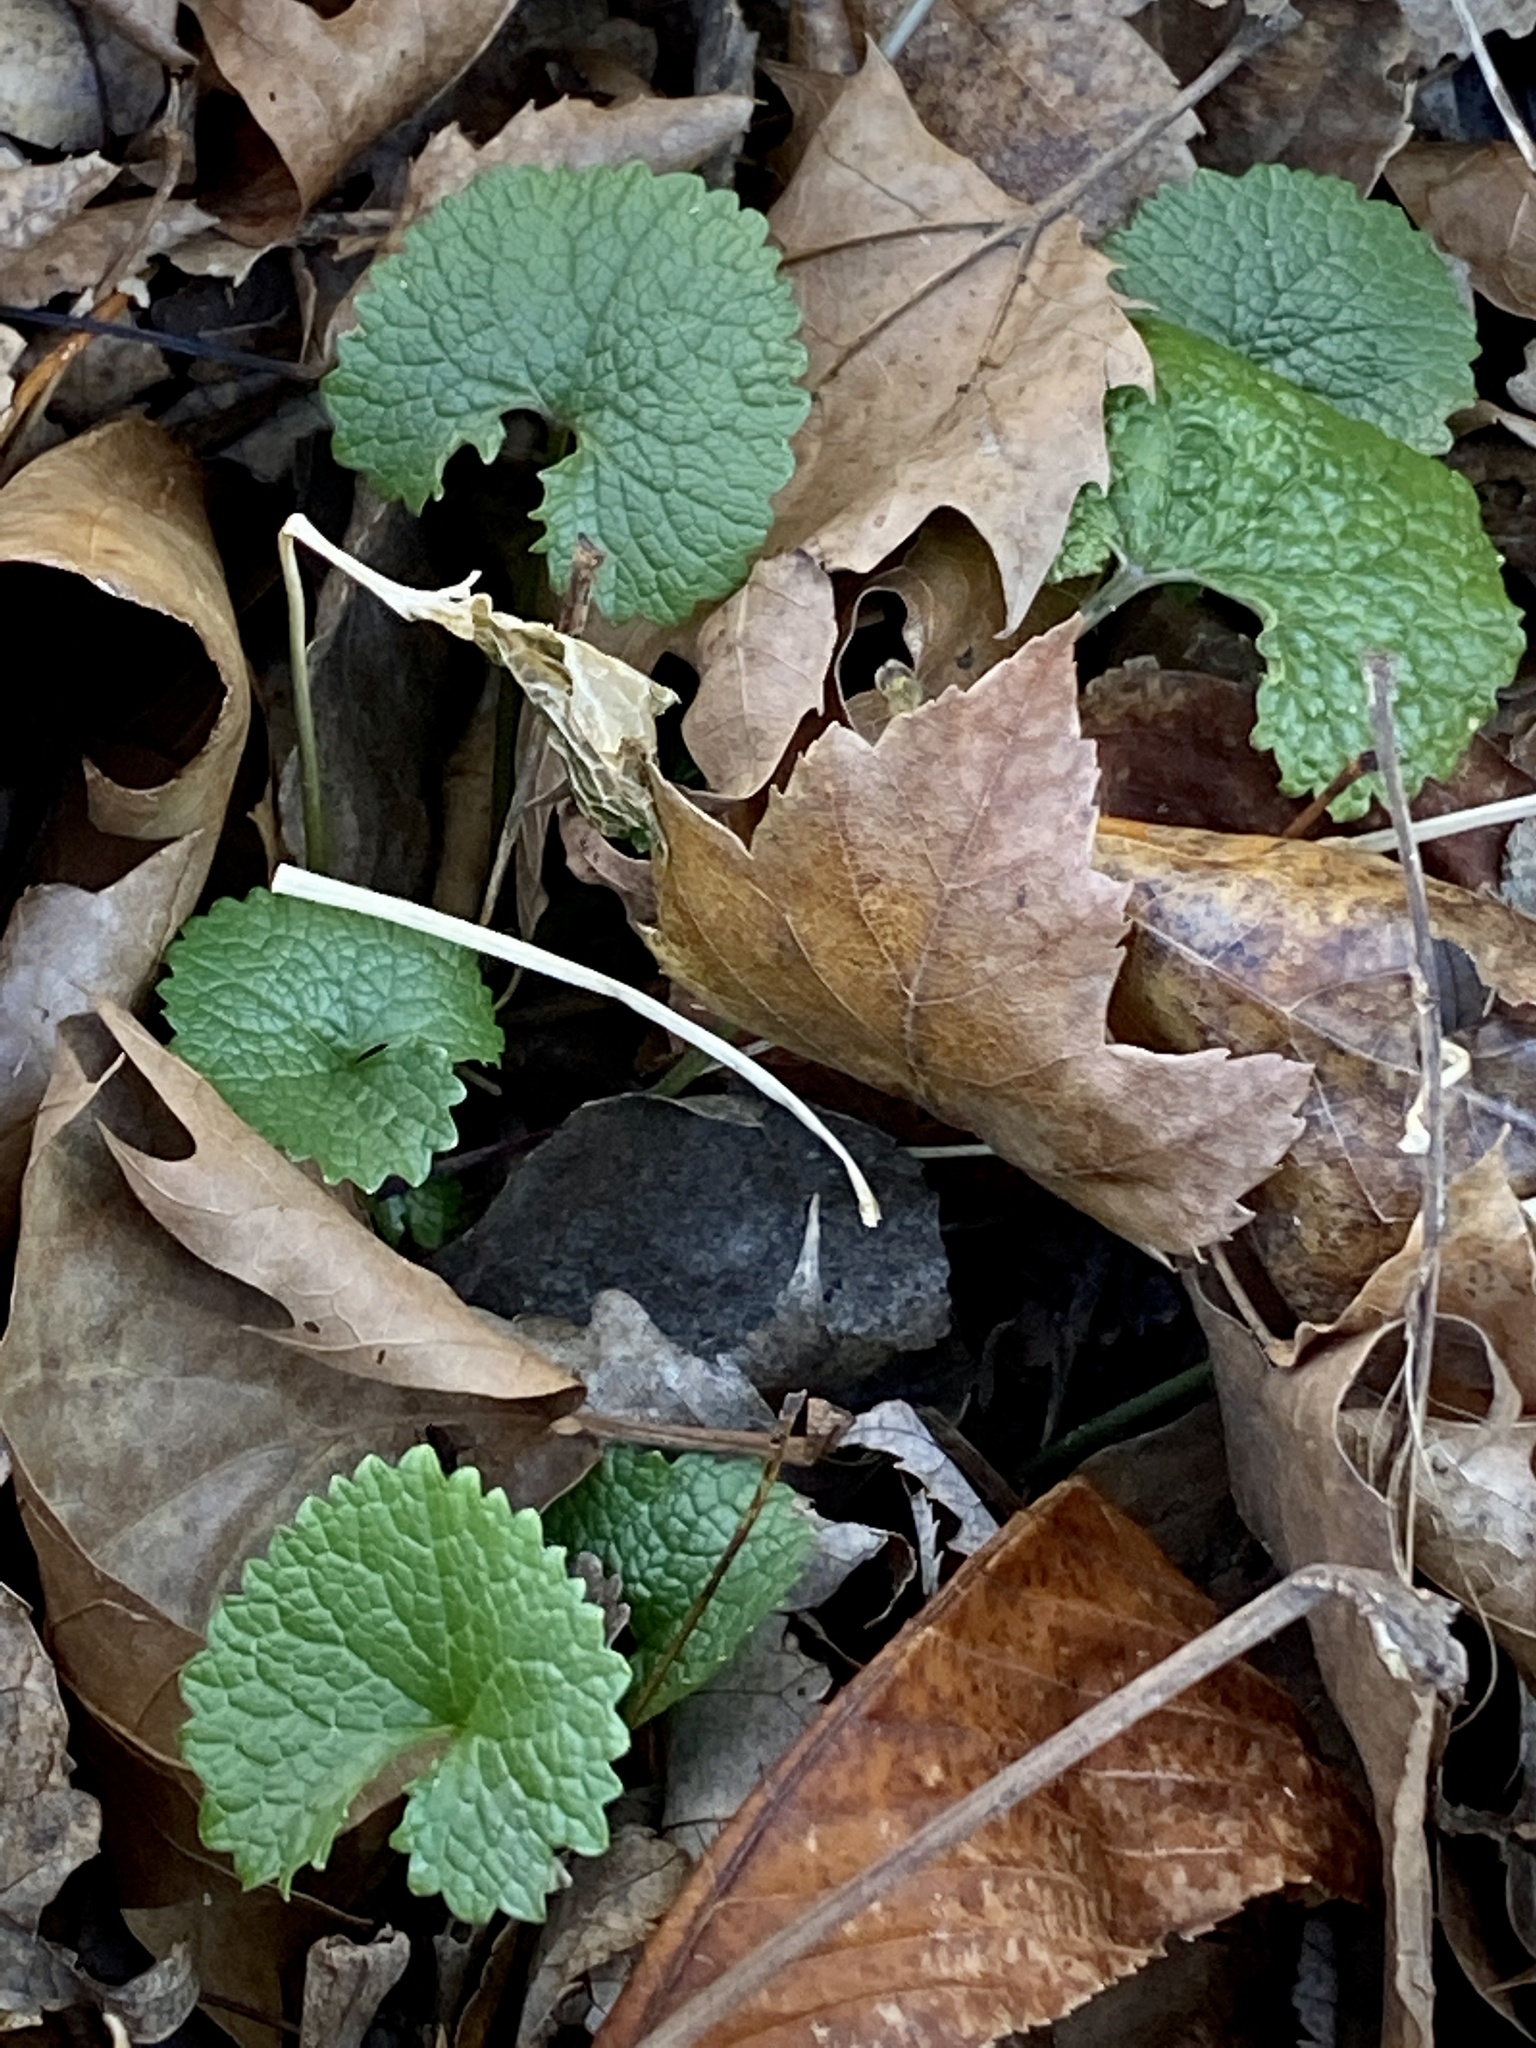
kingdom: Plantae
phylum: Tracheophyta
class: Magnoliopsida
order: Brassicales
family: Brassicaceae
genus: Alliaria
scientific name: Alliaria petiolata
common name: Garlic mustard
